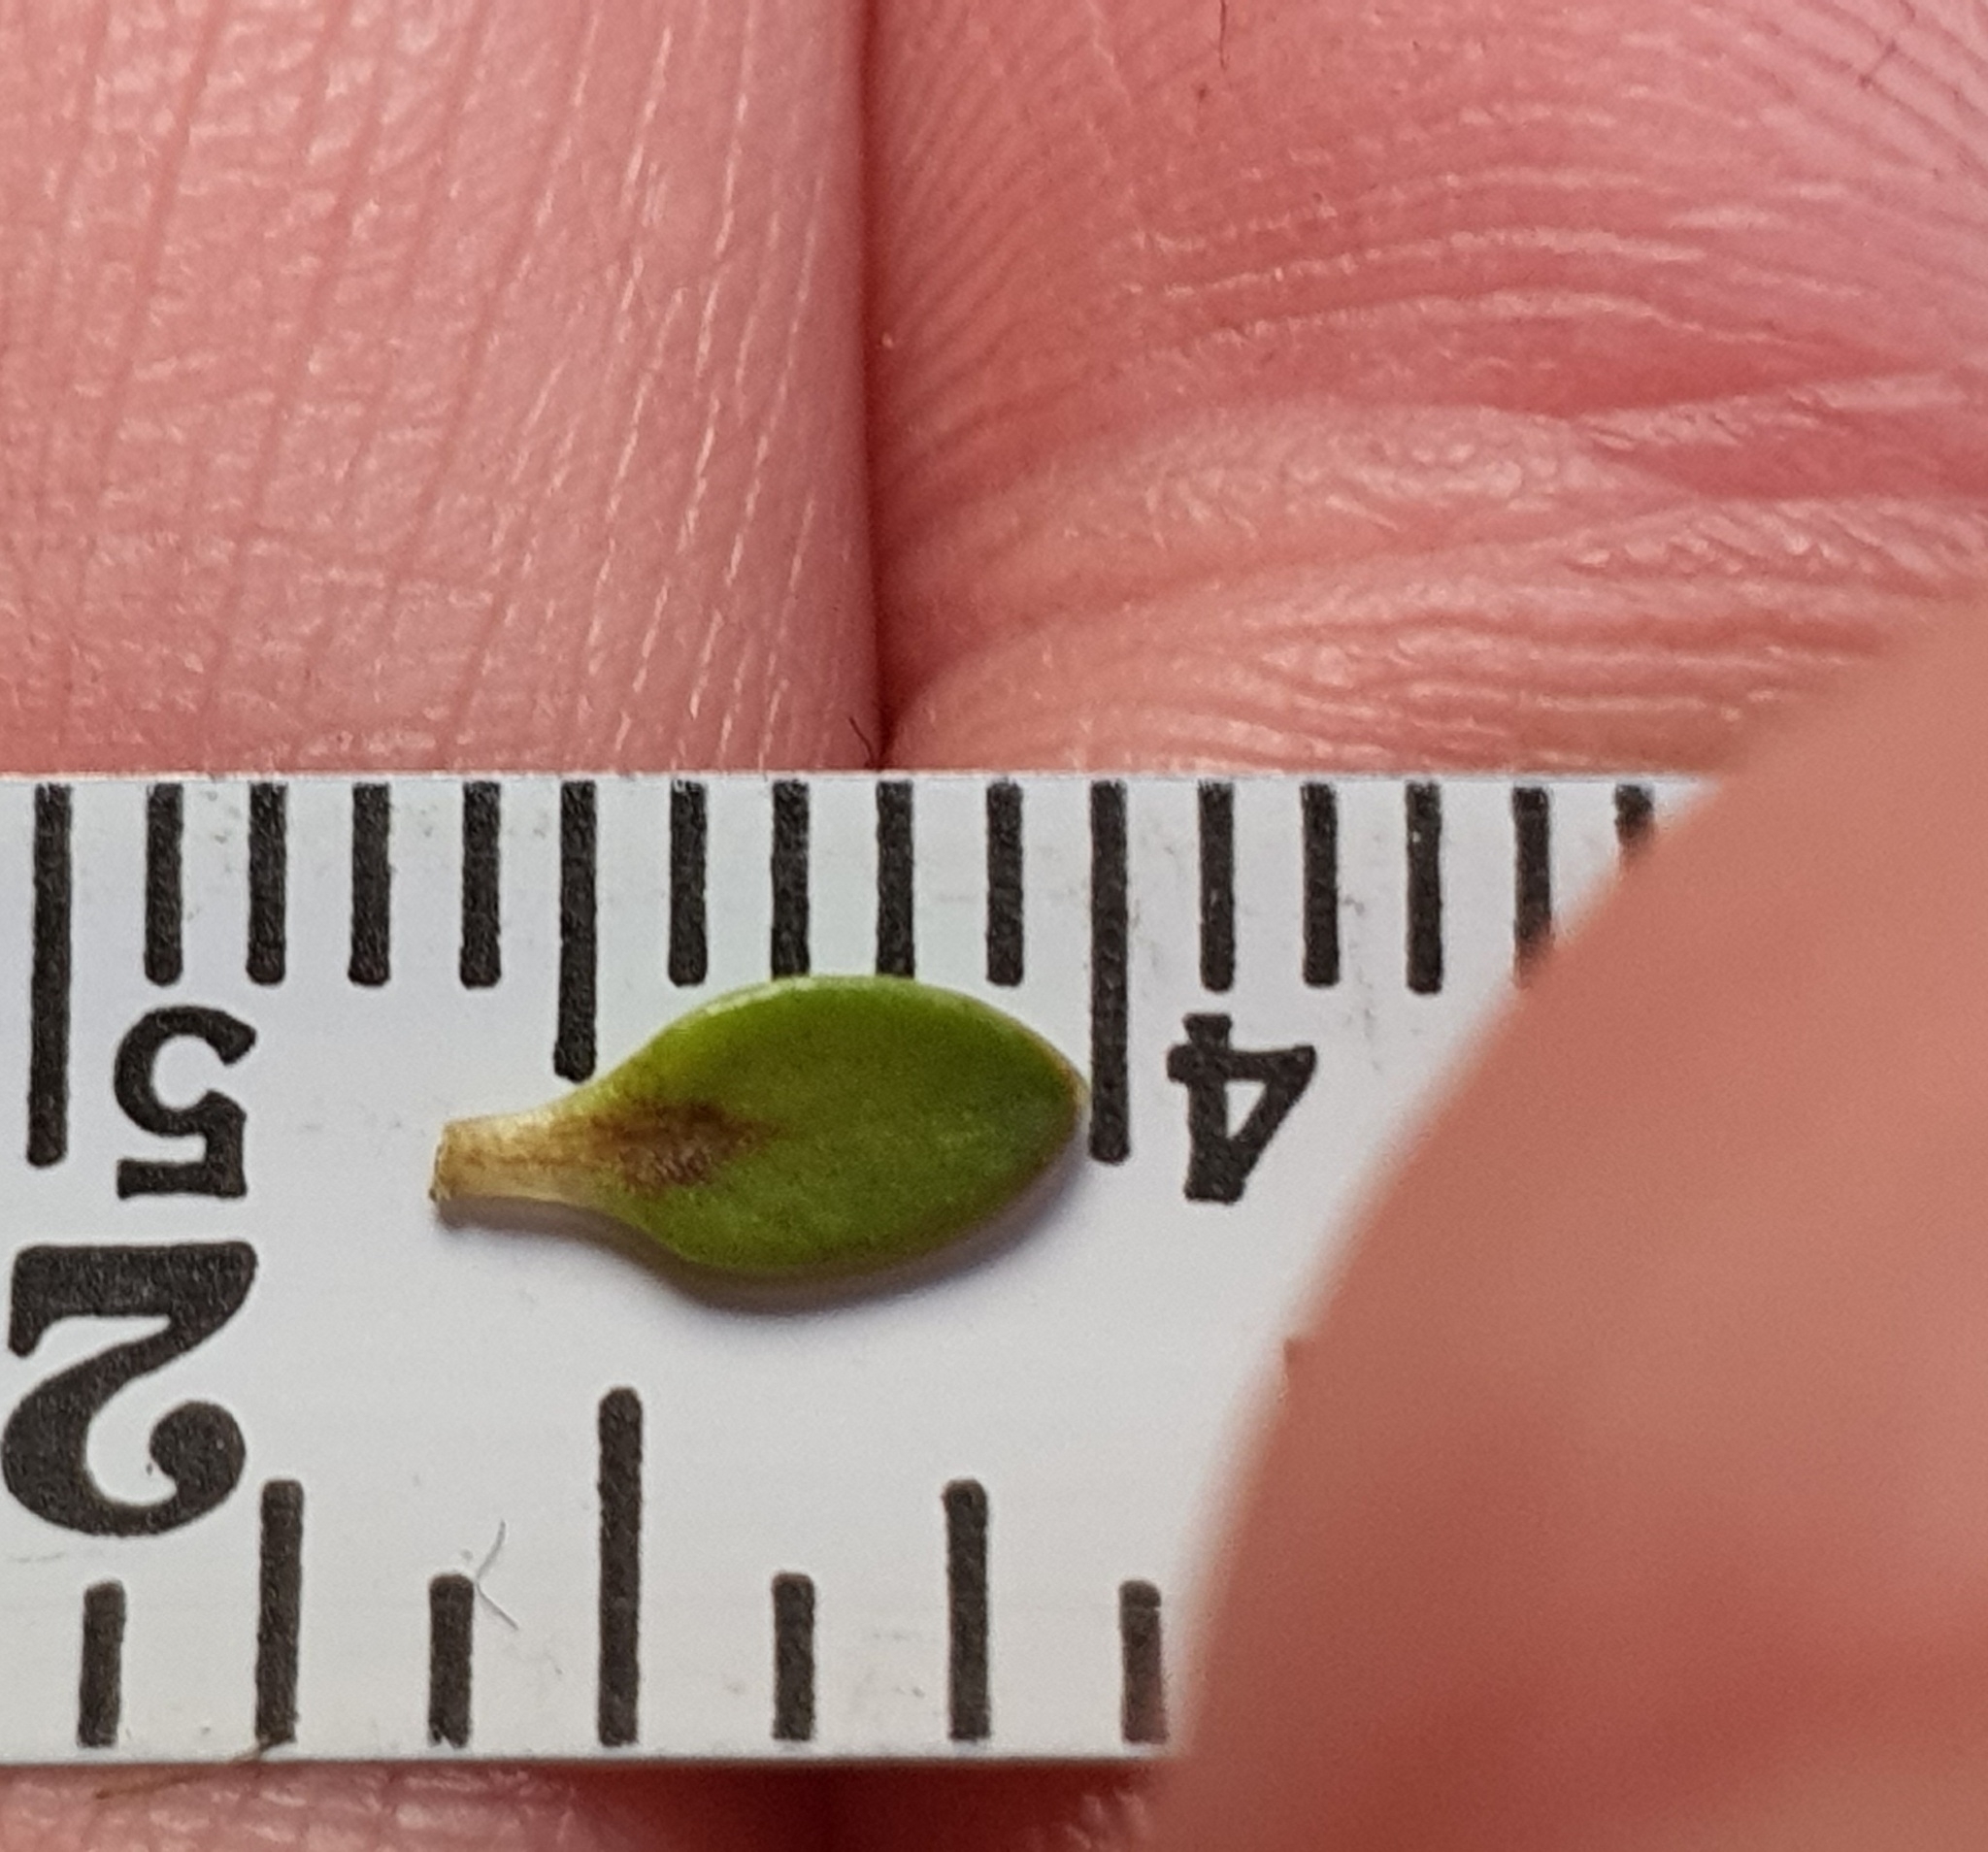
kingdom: Plantae
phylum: Tracheophyta
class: Magnoliopsida
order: Gentianales
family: Rubiaceae
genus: Coprosma
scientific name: Coprosma perpusilla
